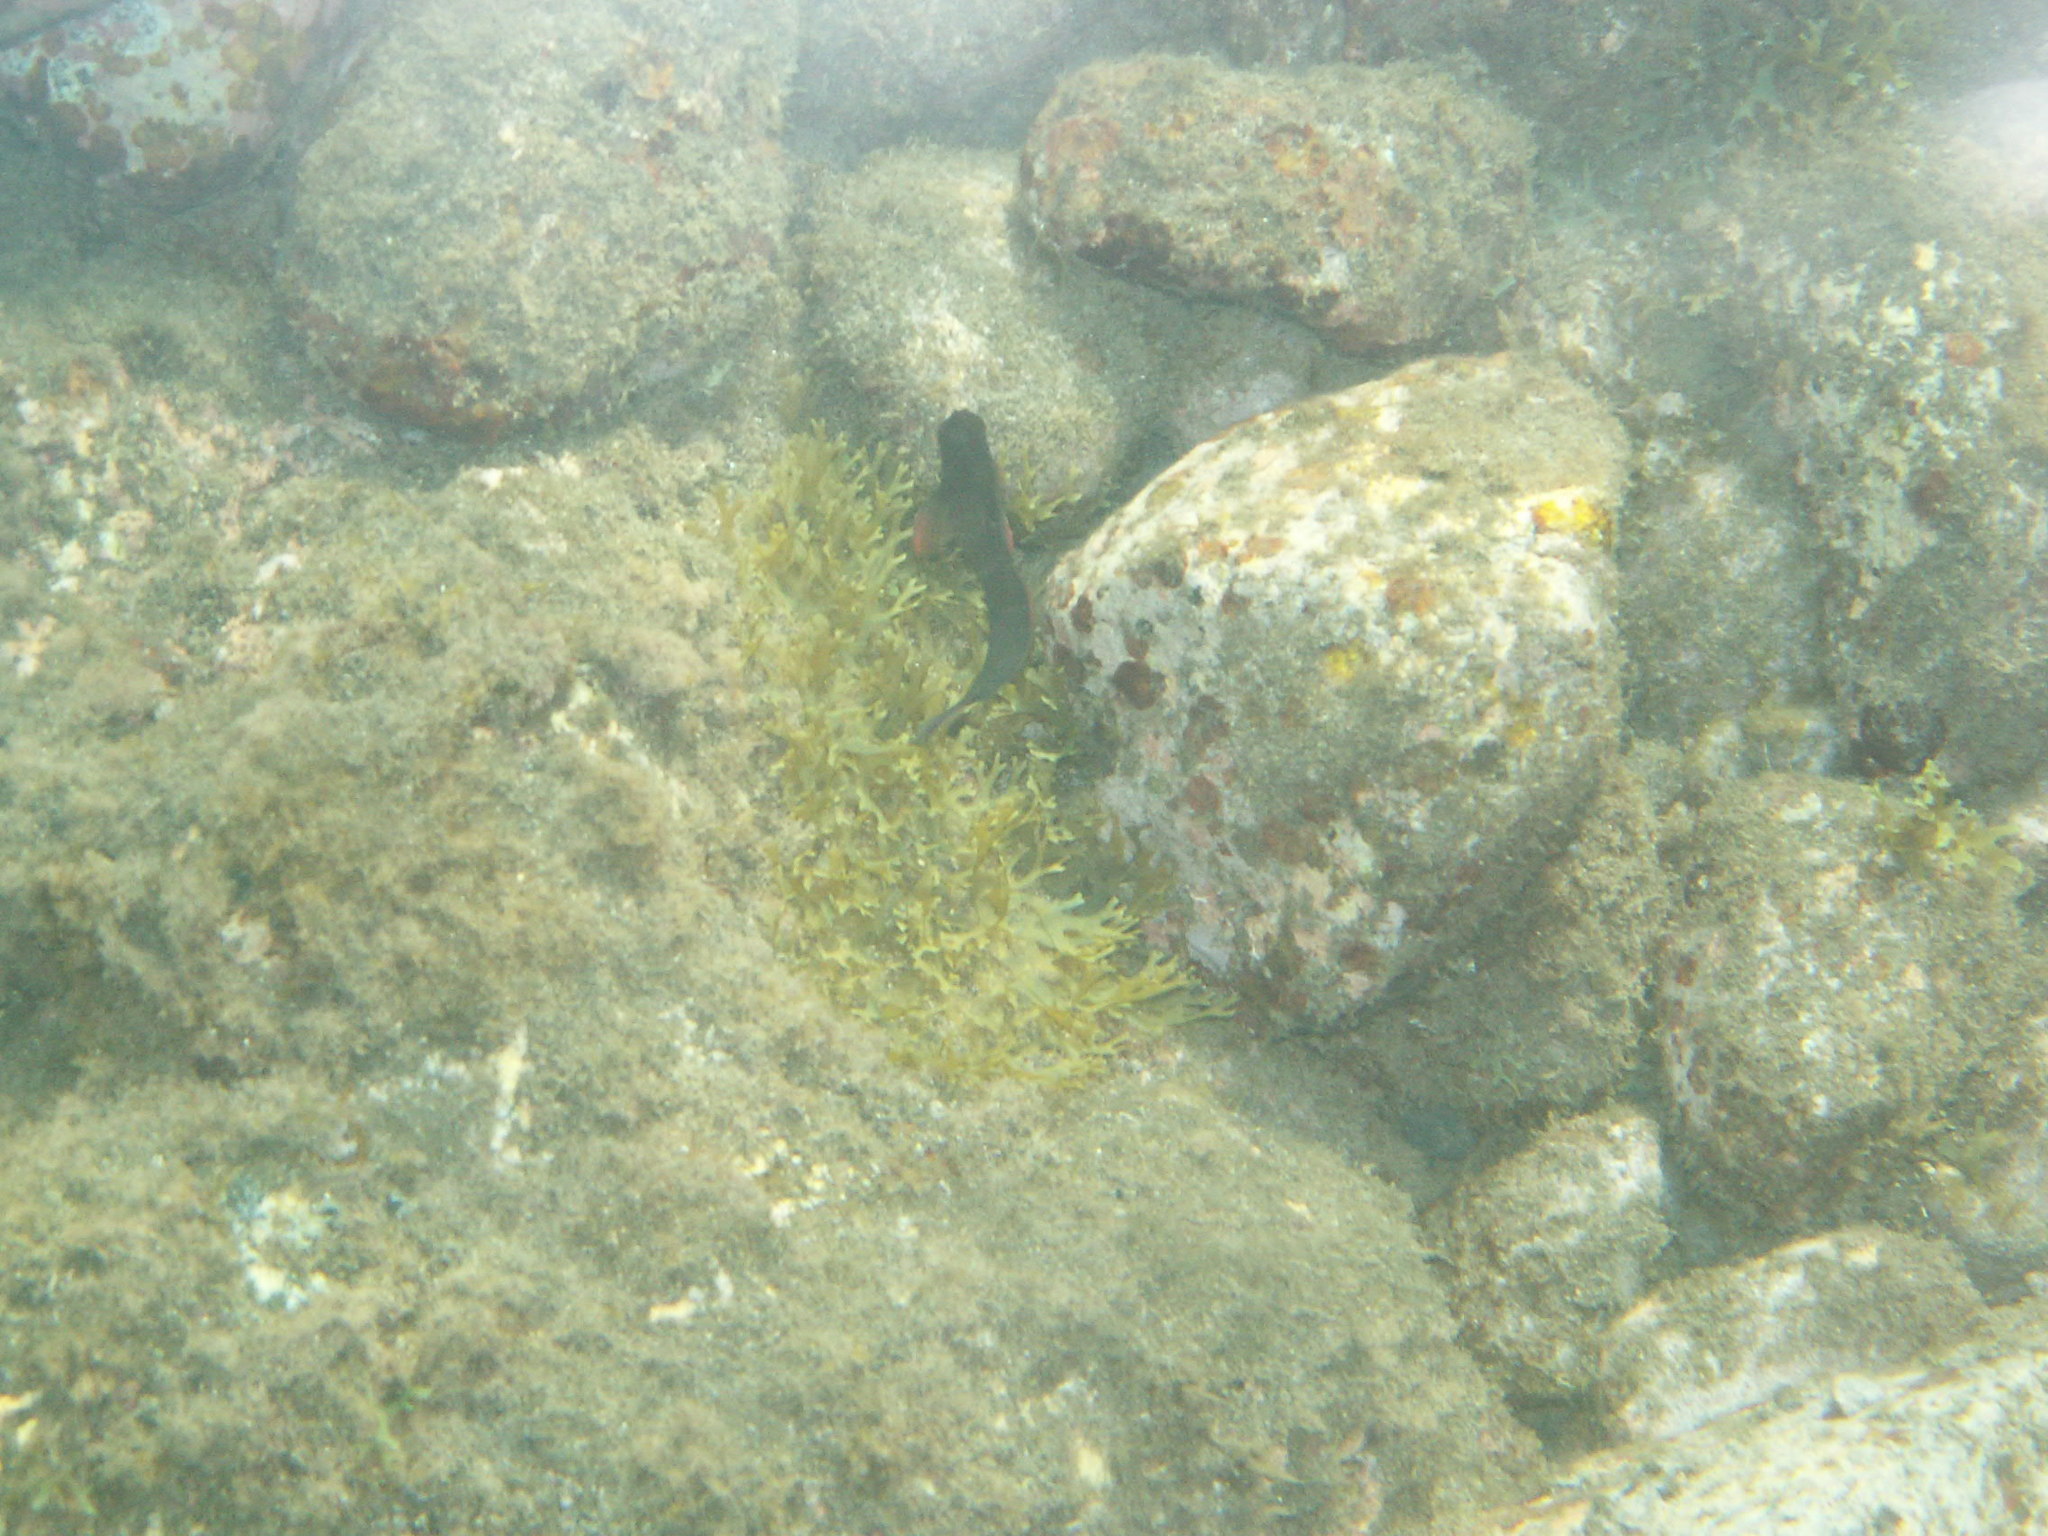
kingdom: Animalia
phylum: Chordata
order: Perciformes
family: Blenniidae
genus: Ophioblennius
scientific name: Ophioblennius atlanticus
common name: Redlip blenny
